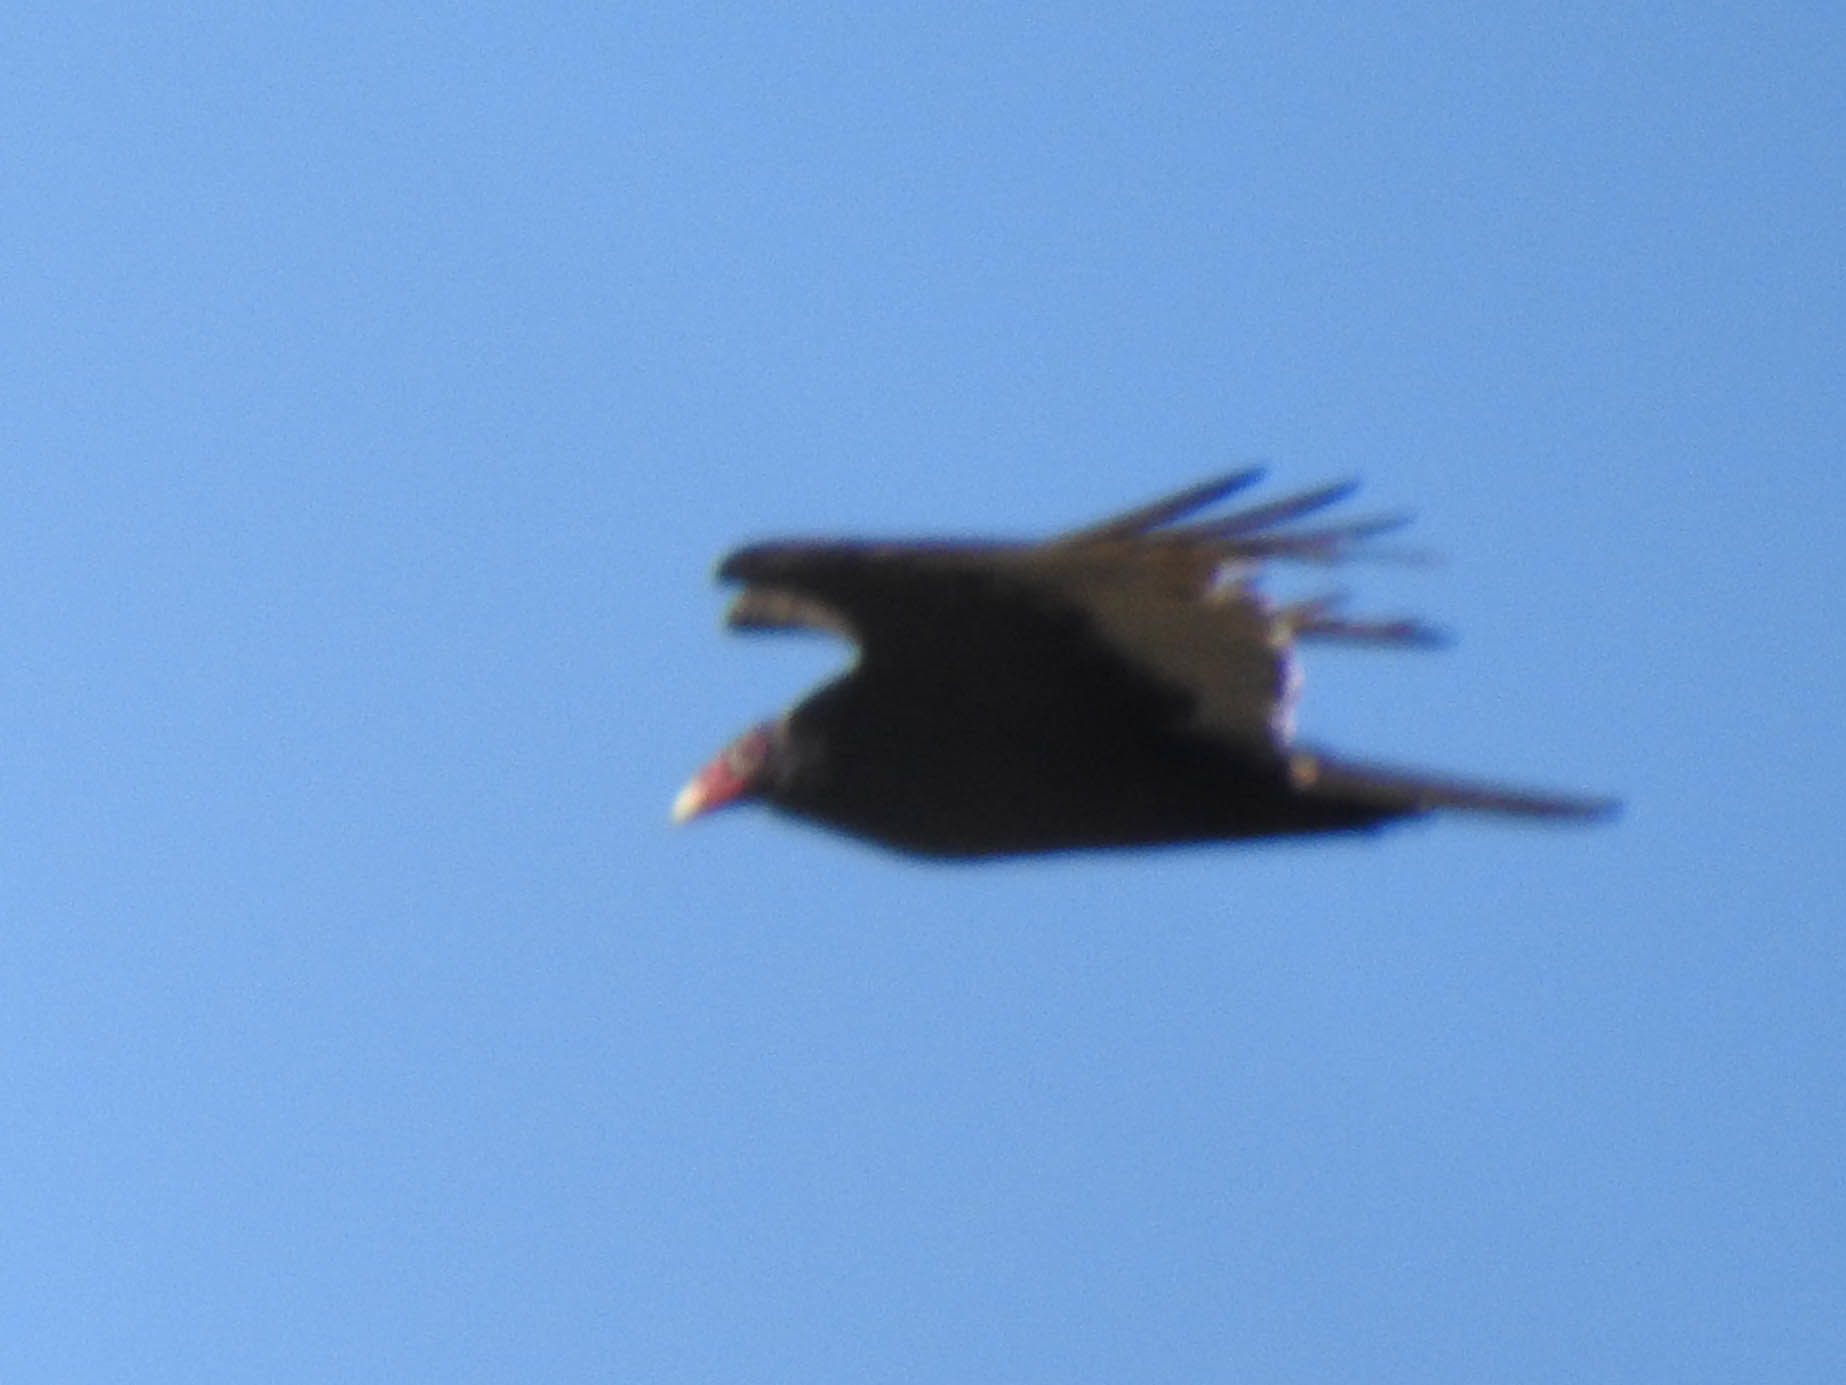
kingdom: Animalia
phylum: Chordata
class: Aves
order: Accipitriformes
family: Cathartidae
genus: Cathartes
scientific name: Cathartes aura
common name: Turkey vulture
